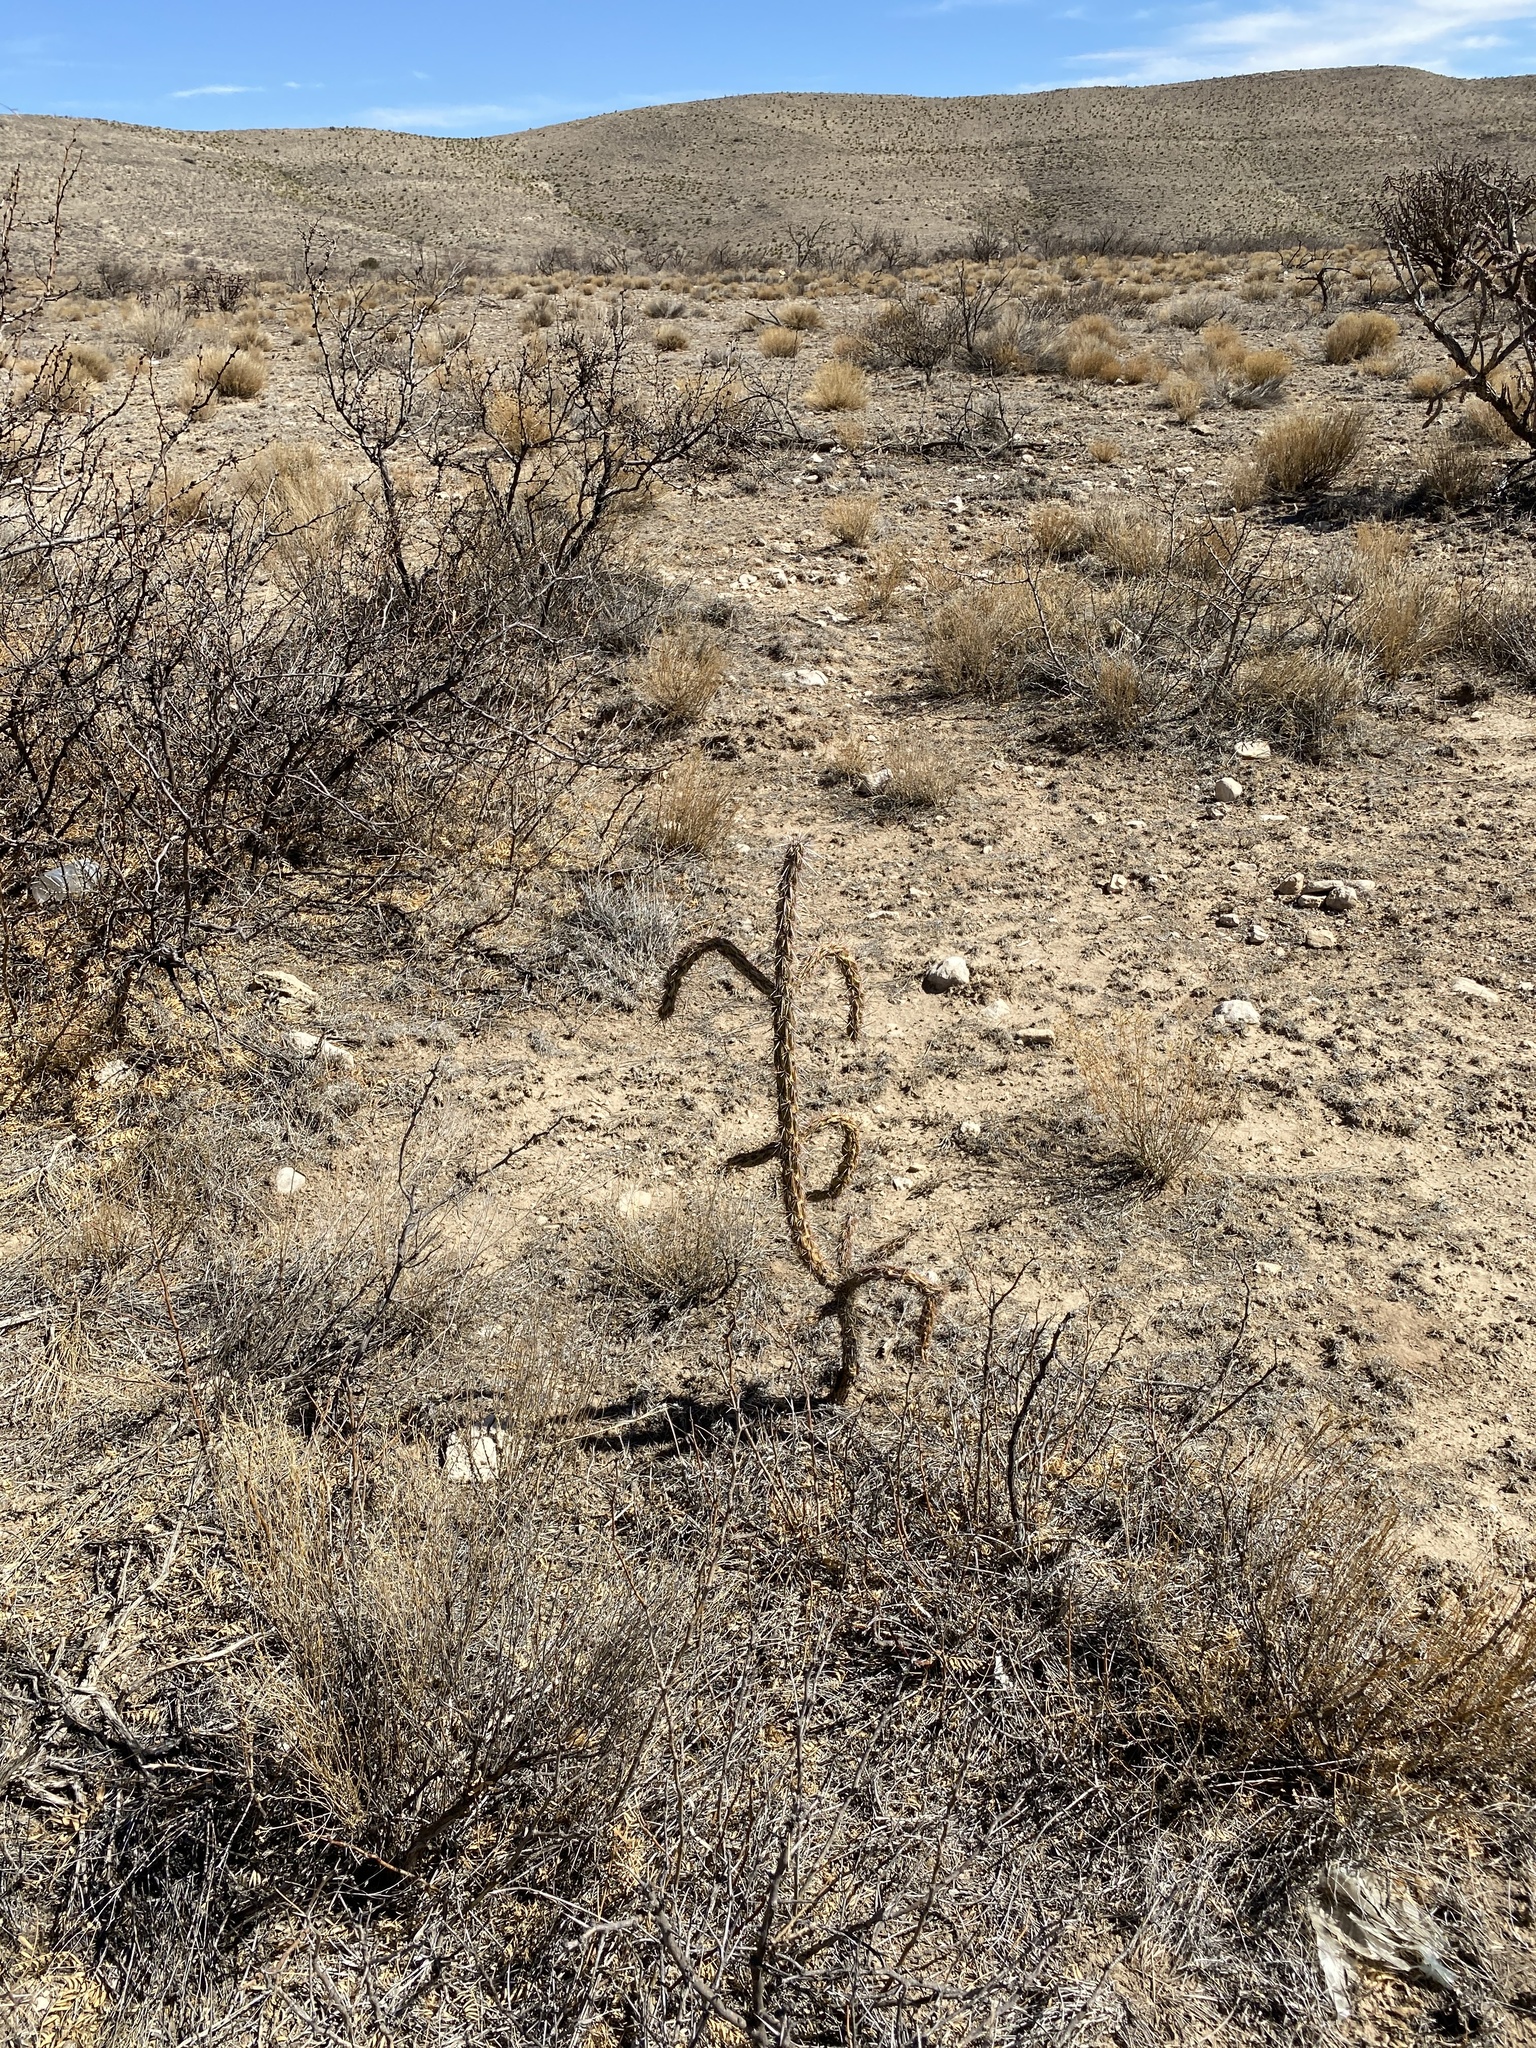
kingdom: Plantae
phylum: Tracheophyta
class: Magnoliopsida
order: Caryophyllales
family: Cactaceae
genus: Cylindropuntia
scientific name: Cylindropuntia imbricata
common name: Candelabrum cactus
